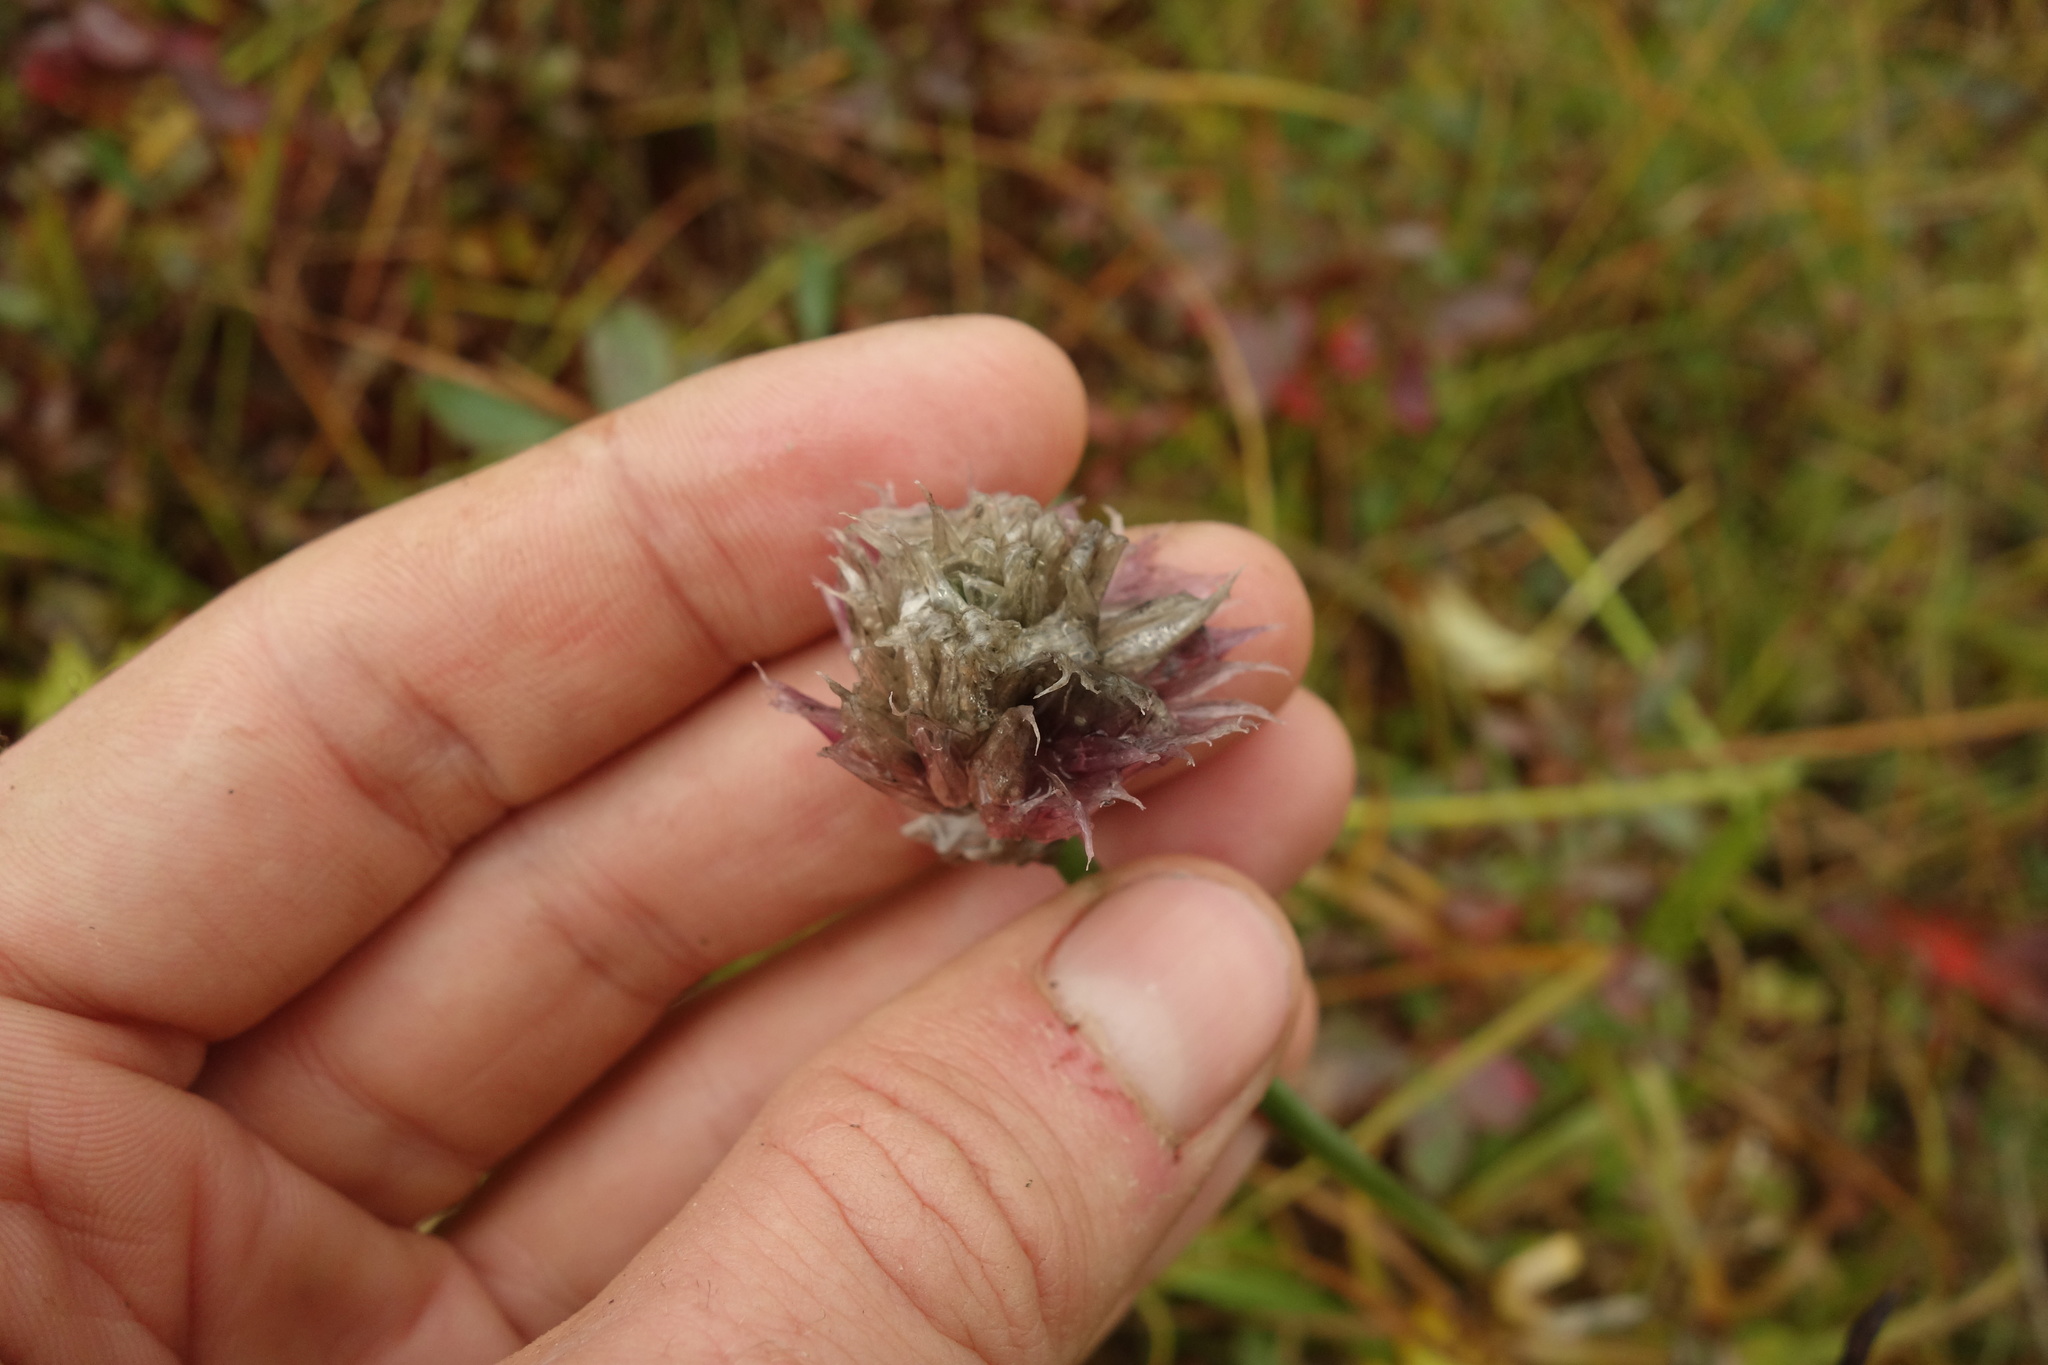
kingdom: Plantae
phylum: Tracheophyta
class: Liliopsida
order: Asparagales
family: Amaryllidaceae
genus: Allium
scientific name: Allium schoenoprasum
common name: Chives
